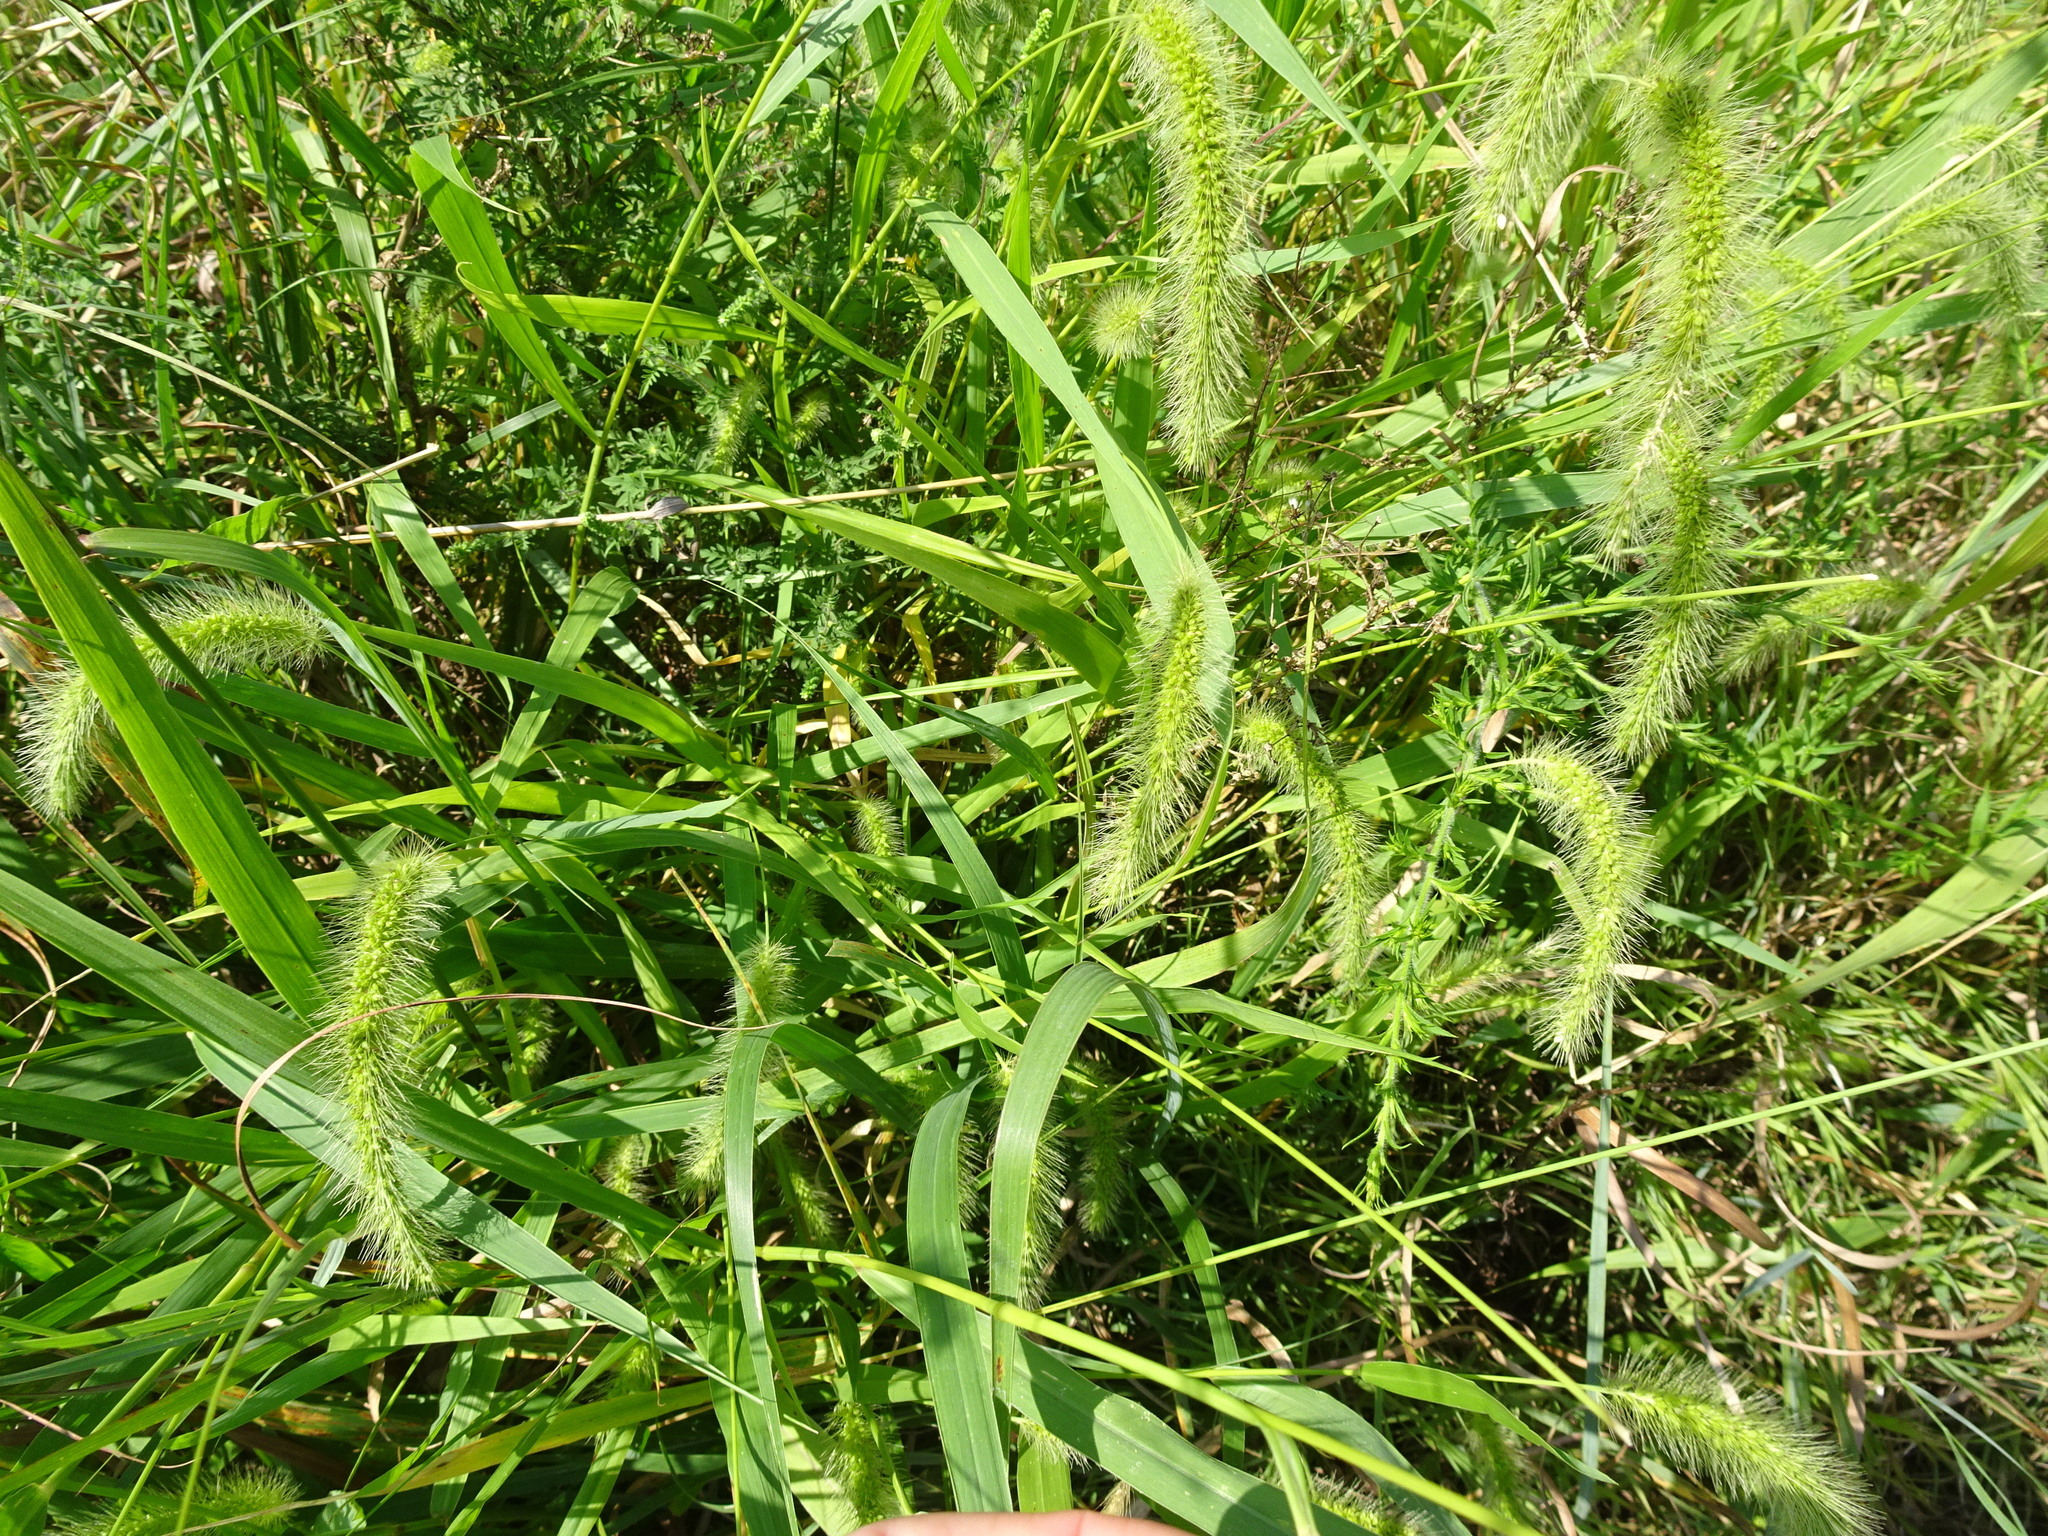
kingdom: Plantae
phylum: Tracheophyta
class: Liliopsida
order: Poales
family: Poaceae
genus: Setaria
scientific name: Setaria faberi
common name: Nodding bristle-grass
